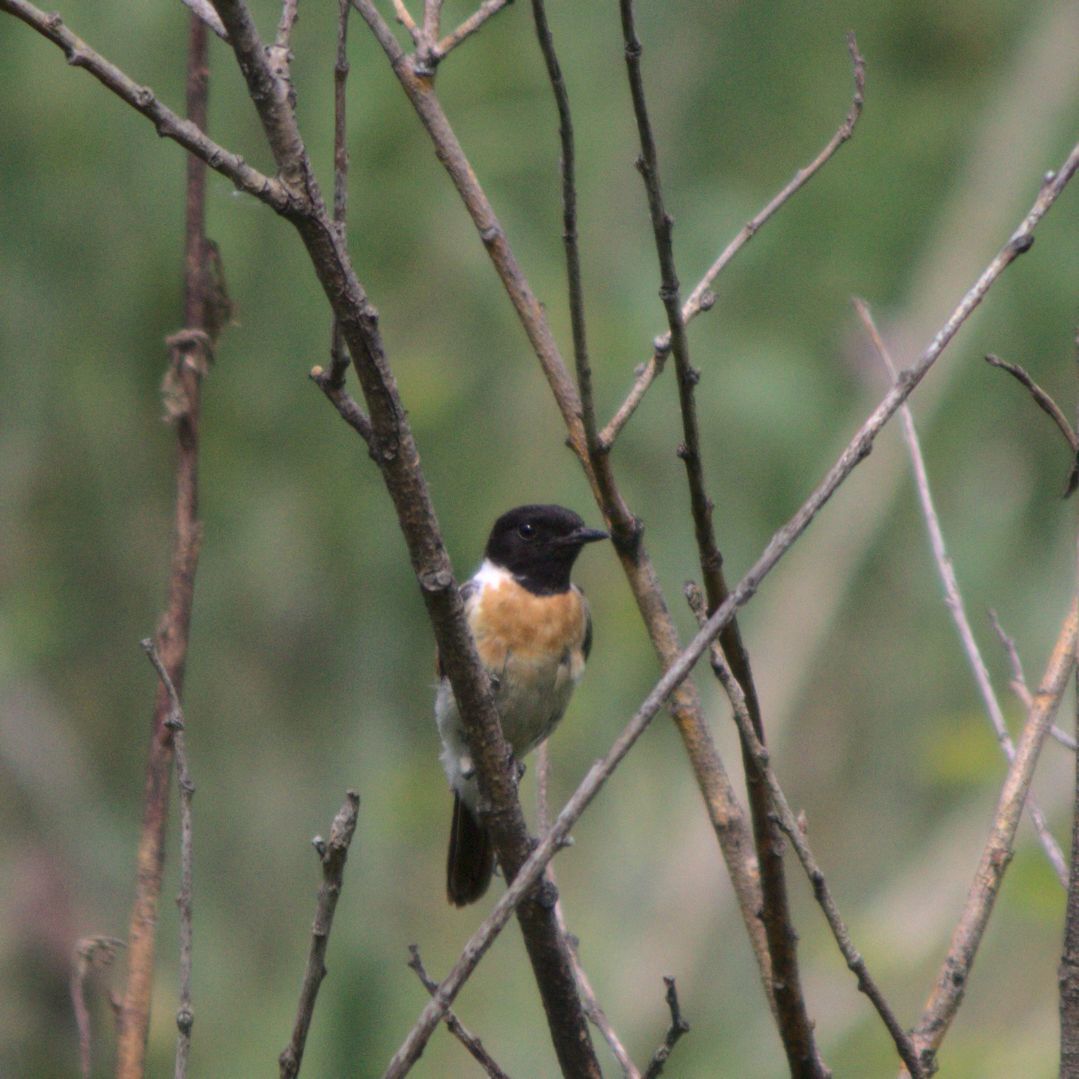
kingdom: Animalia
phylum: Chordata
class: Aves
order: Passeriformes
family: Muscicapidae
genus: Saxicola
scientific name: Saxicola maurus
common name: Siberian stonechat
